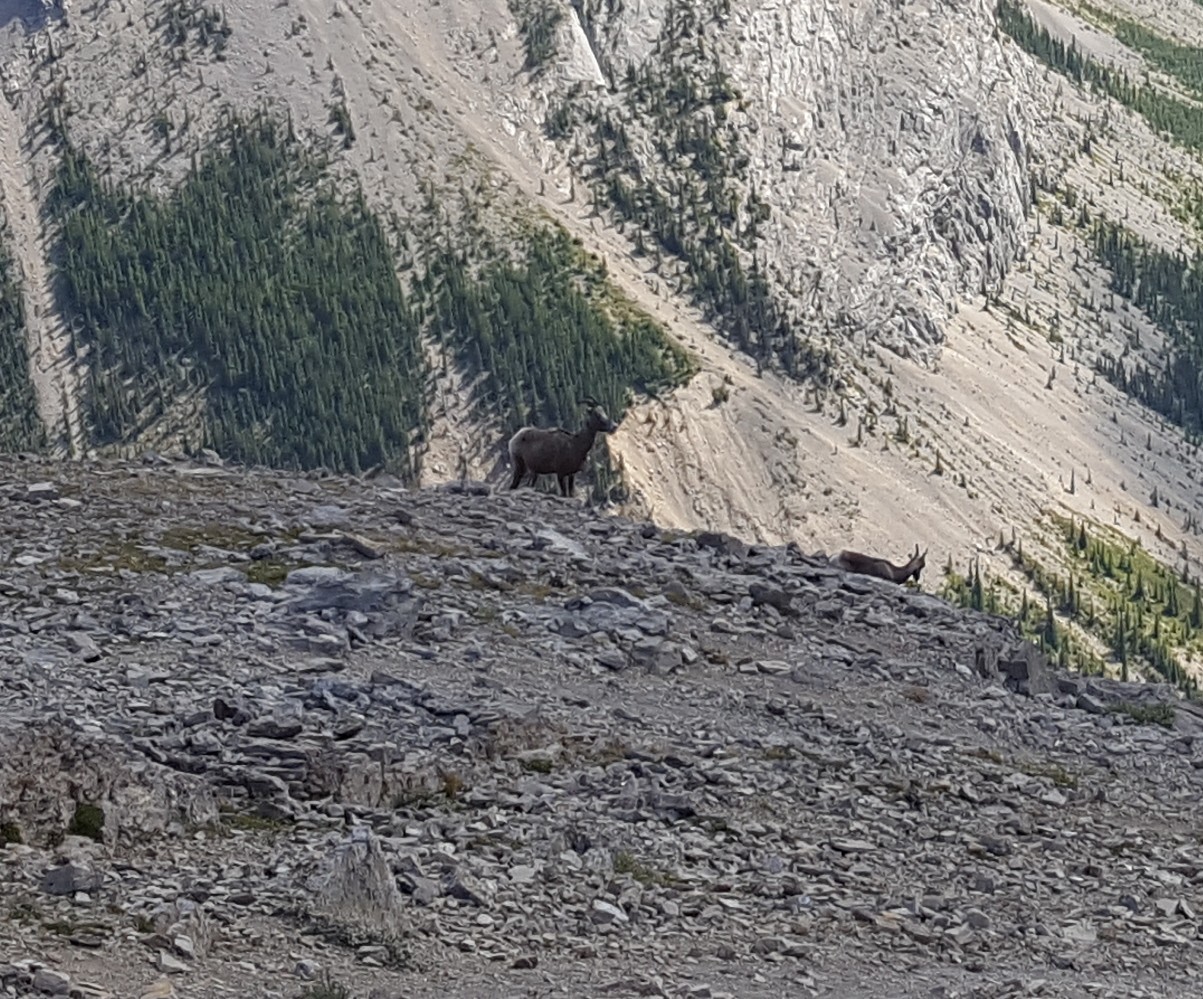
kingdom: Animalia
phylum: Chordata
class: Mammalia
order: Artiodactyla
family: Bovidae
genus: Ovis
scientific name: Ovis canadensis
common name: Bighorn sheep
